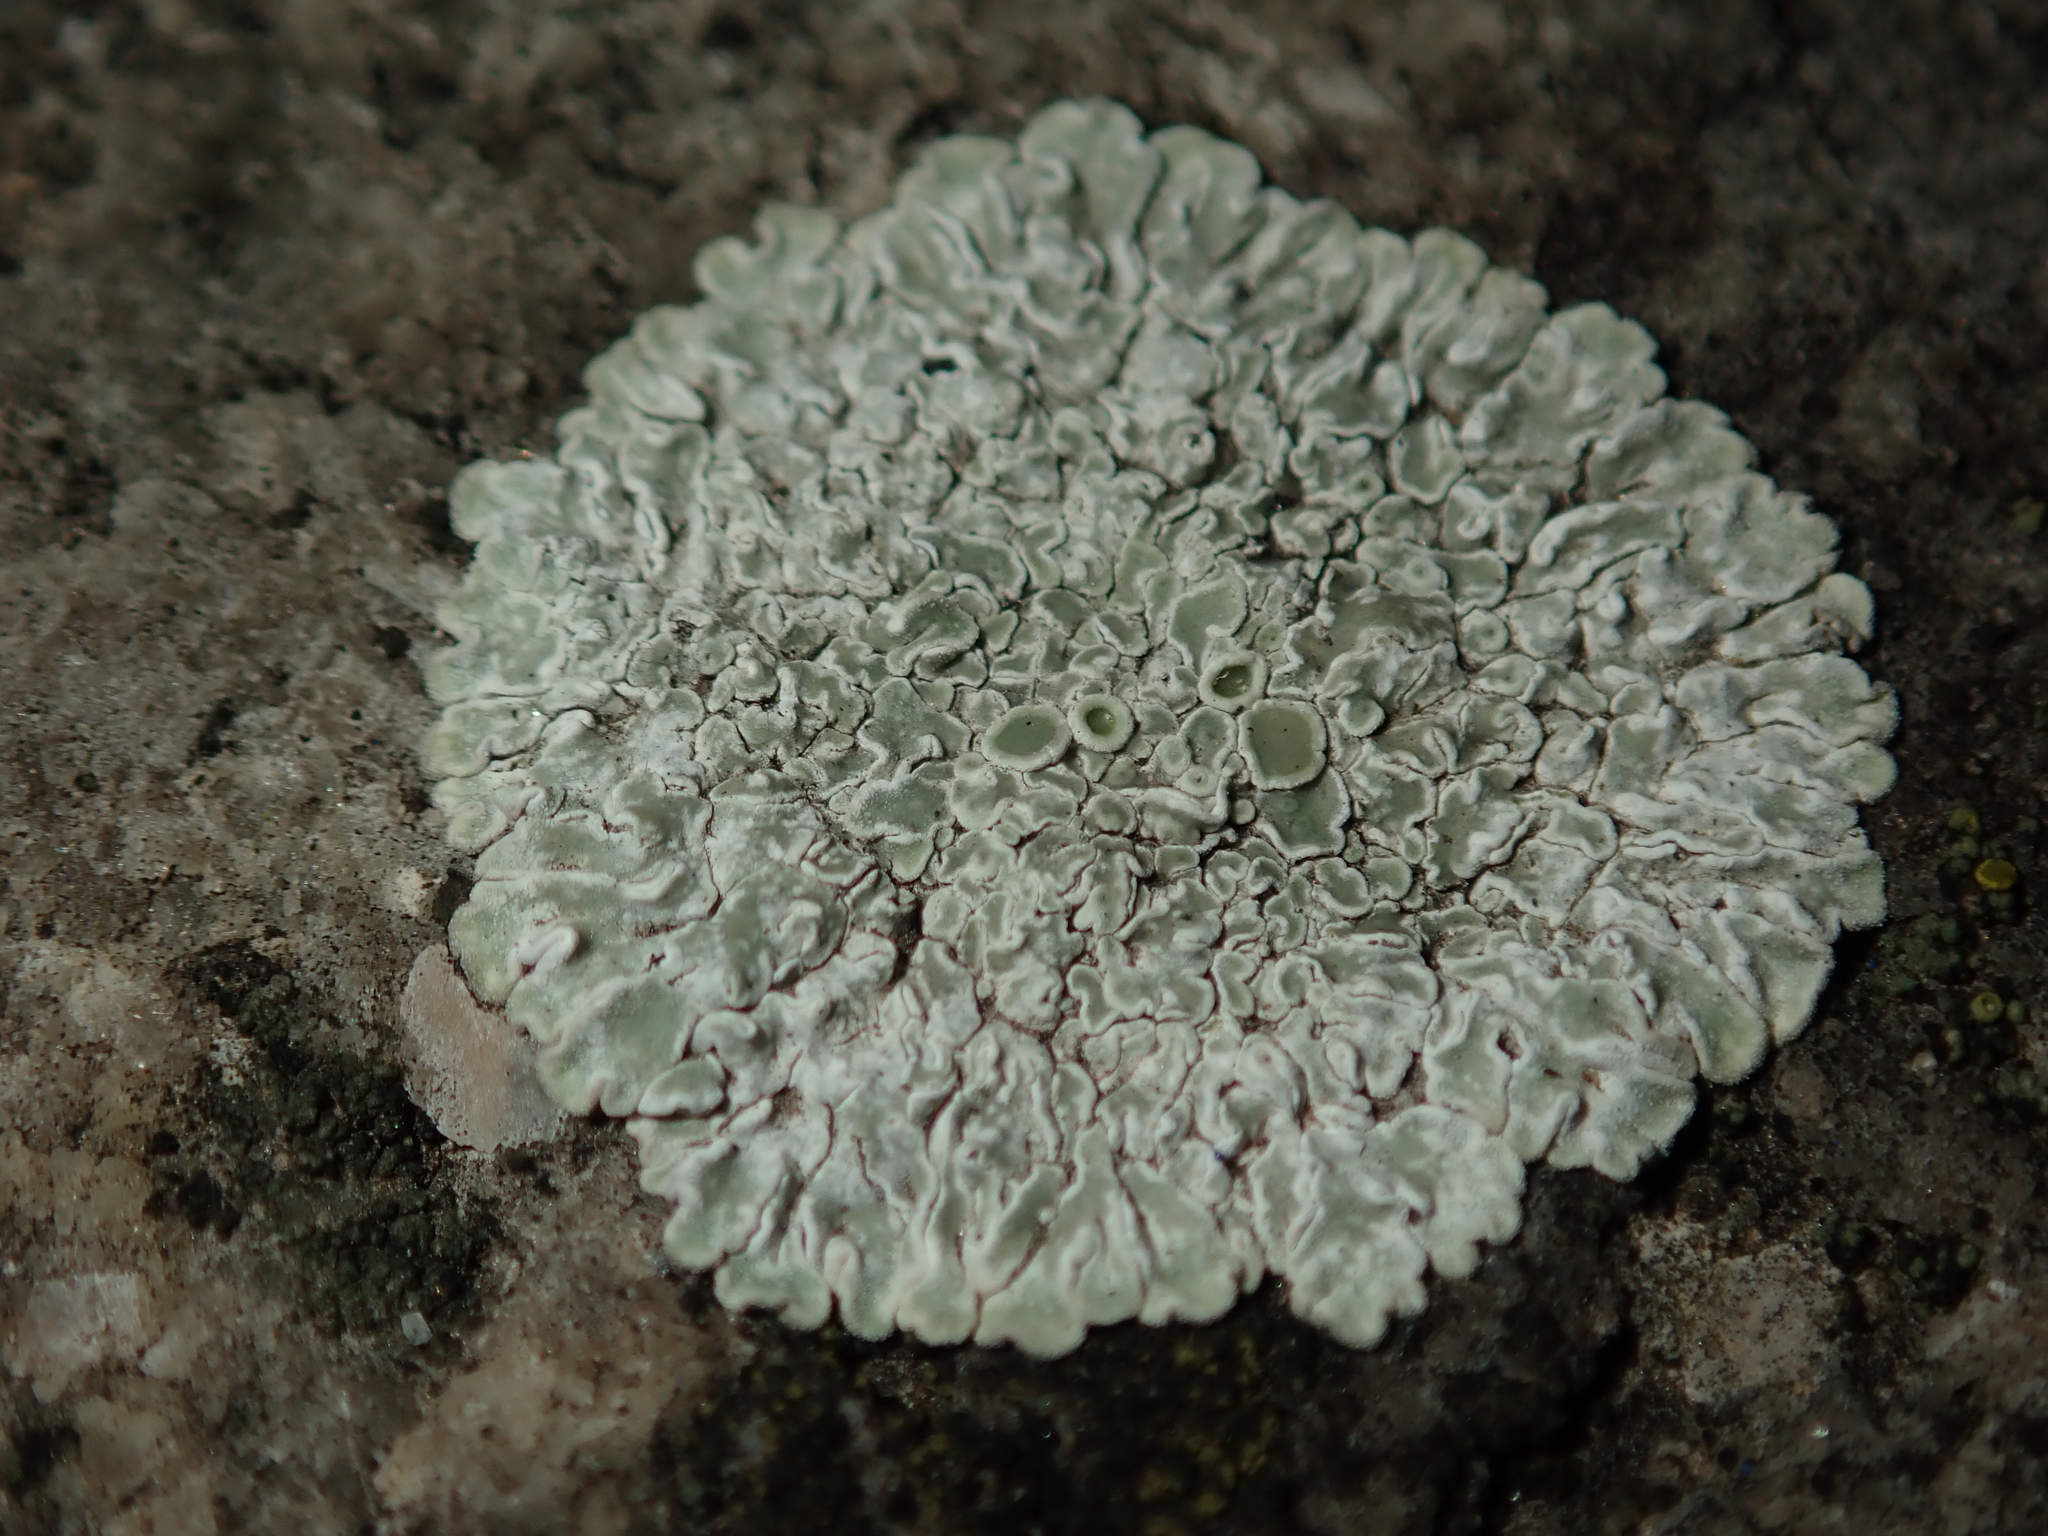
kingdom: Fungi
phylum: Ascomycota
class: Lecanoromycetes
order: Lecanorales
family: Lecanoraceae
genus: Protoparmeliopsis
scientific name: Protoparmeliopsis muralis
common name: Stonewall rim lichen
